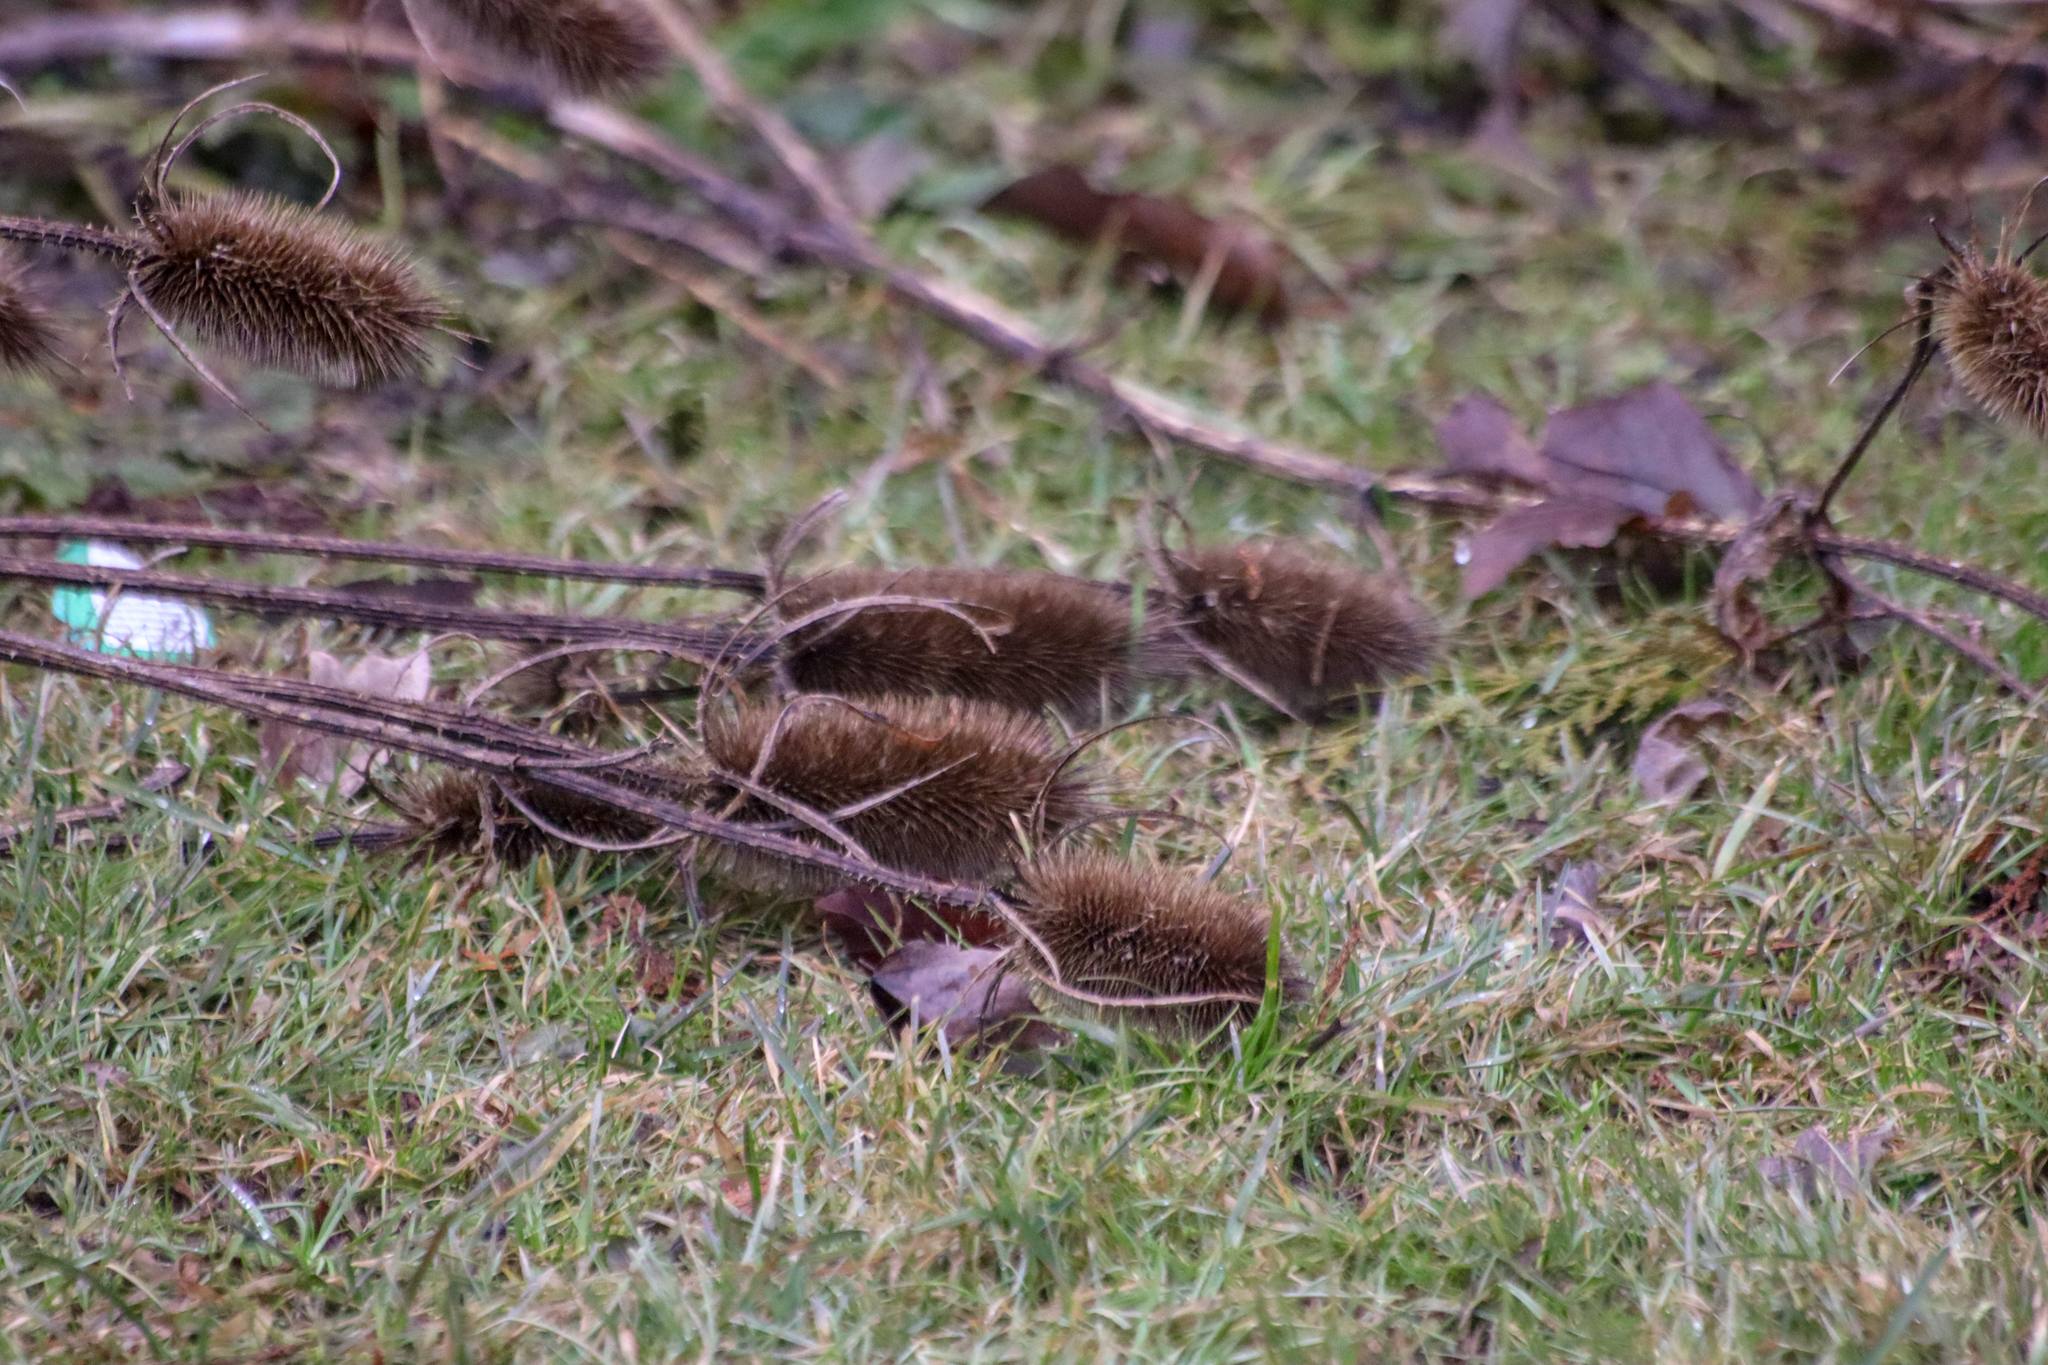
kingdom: Plantae
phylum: Tracheophyta
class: Magnoliopsida
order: Dipsacales
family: Caprifoliaceae
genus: Dipsacus
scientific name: Dipsacus fullonum
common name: Teasel
